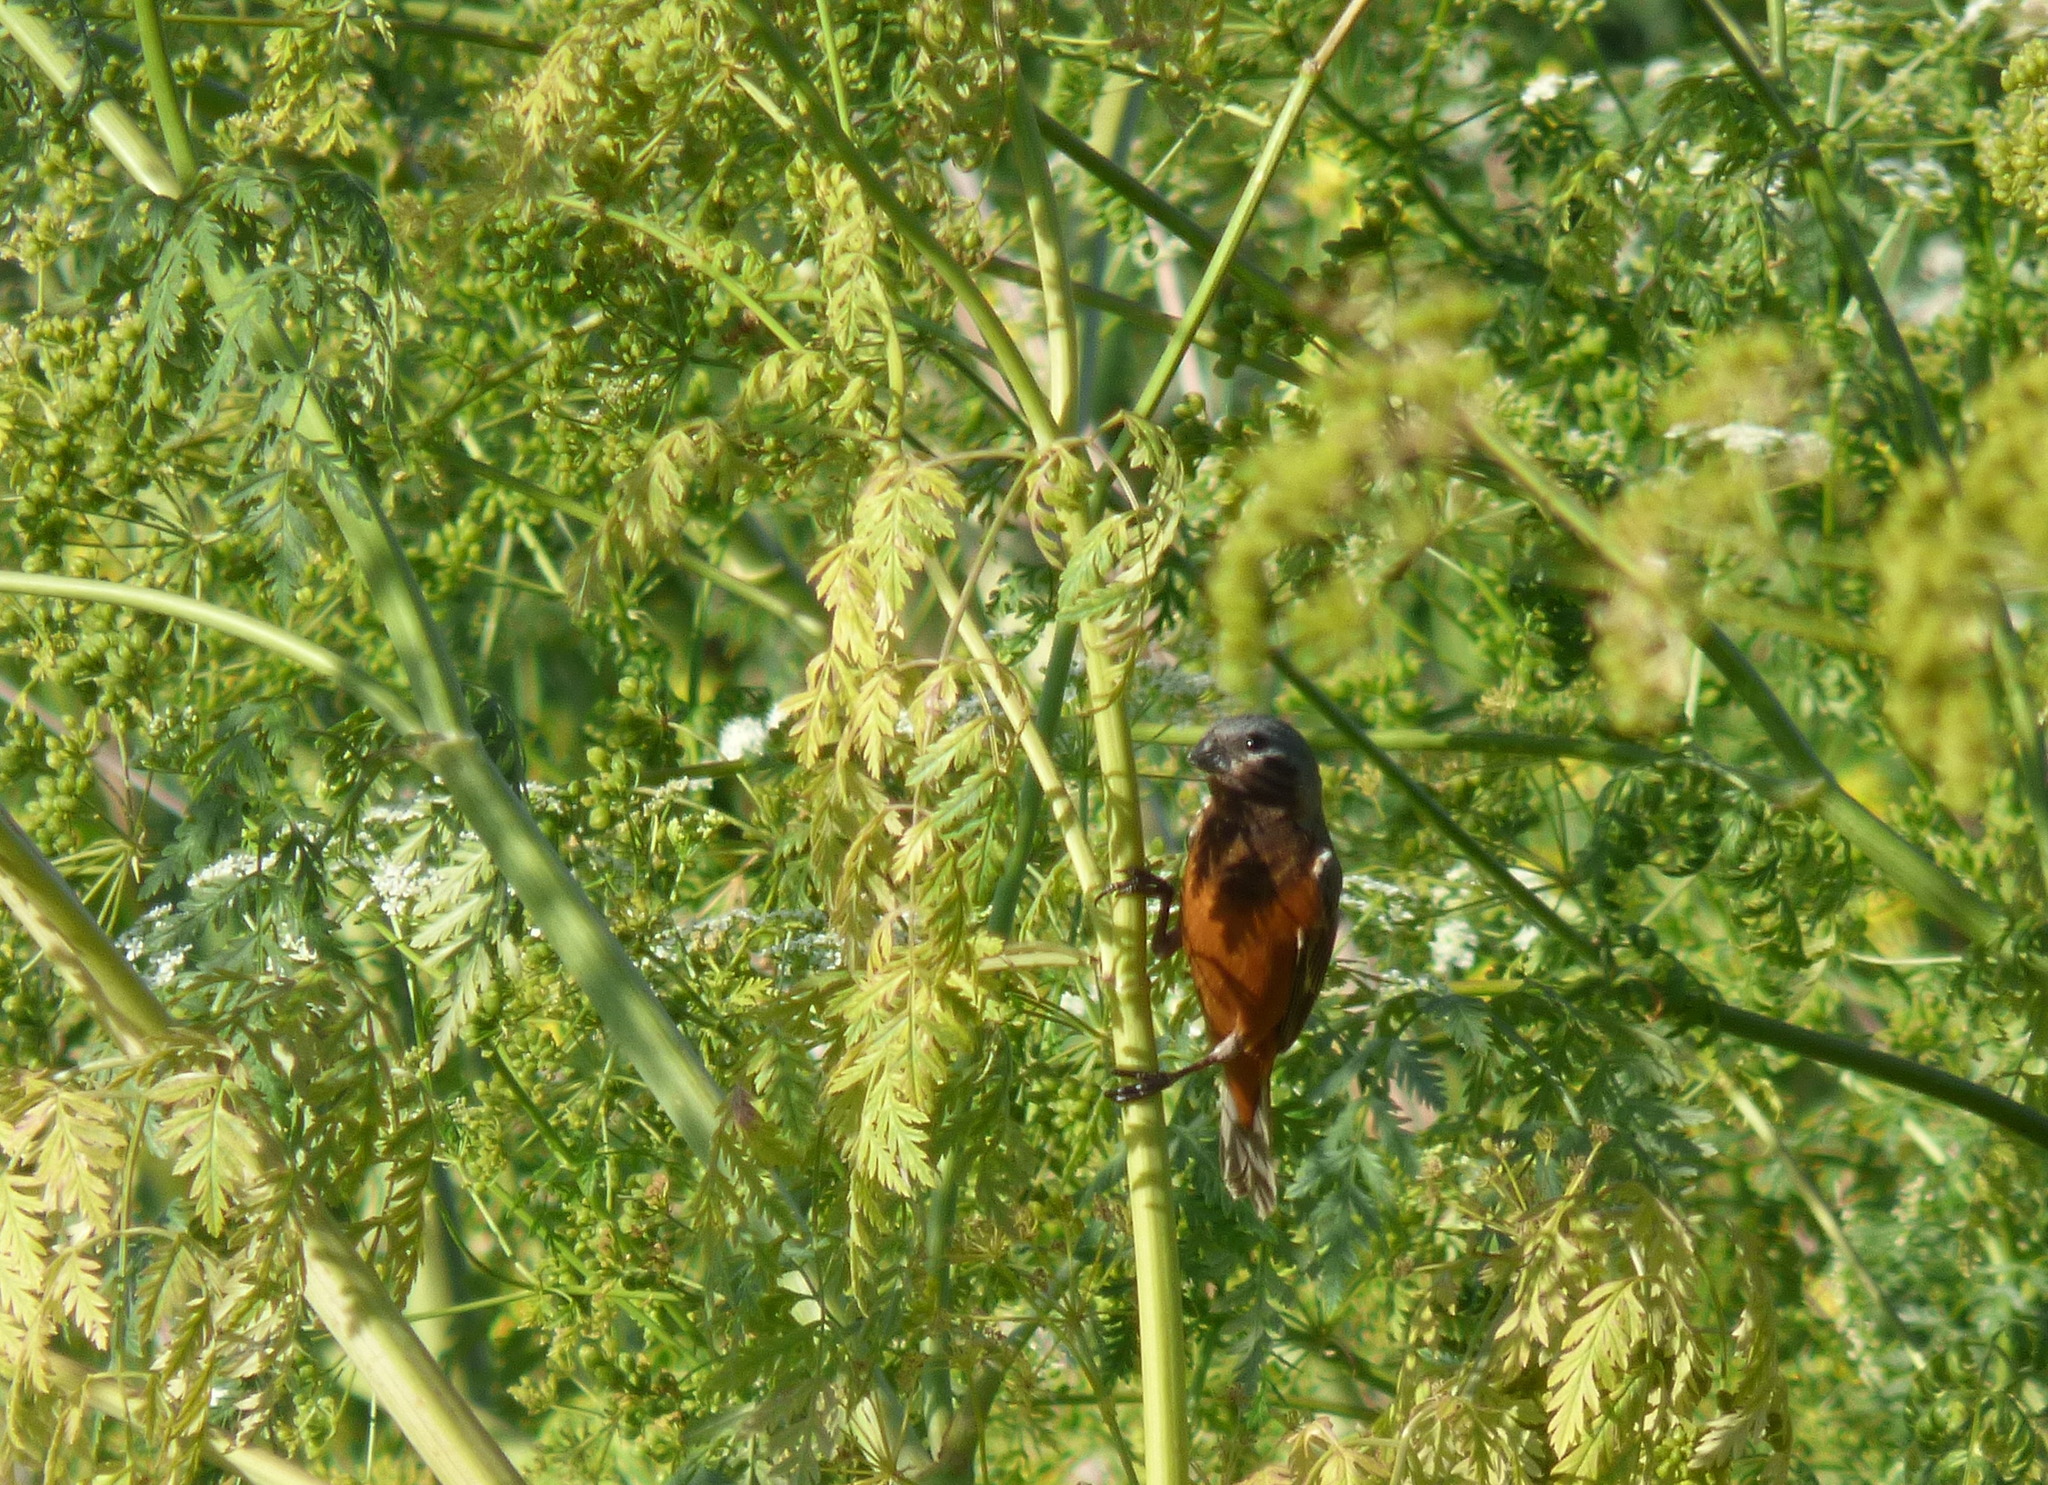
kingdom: Animalia
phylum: Chordata
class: Aves
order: Passeriformes
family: Thraupidae
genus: Sporophila
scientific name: Sporophila ruficollis
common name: Dark-throated seedeater
